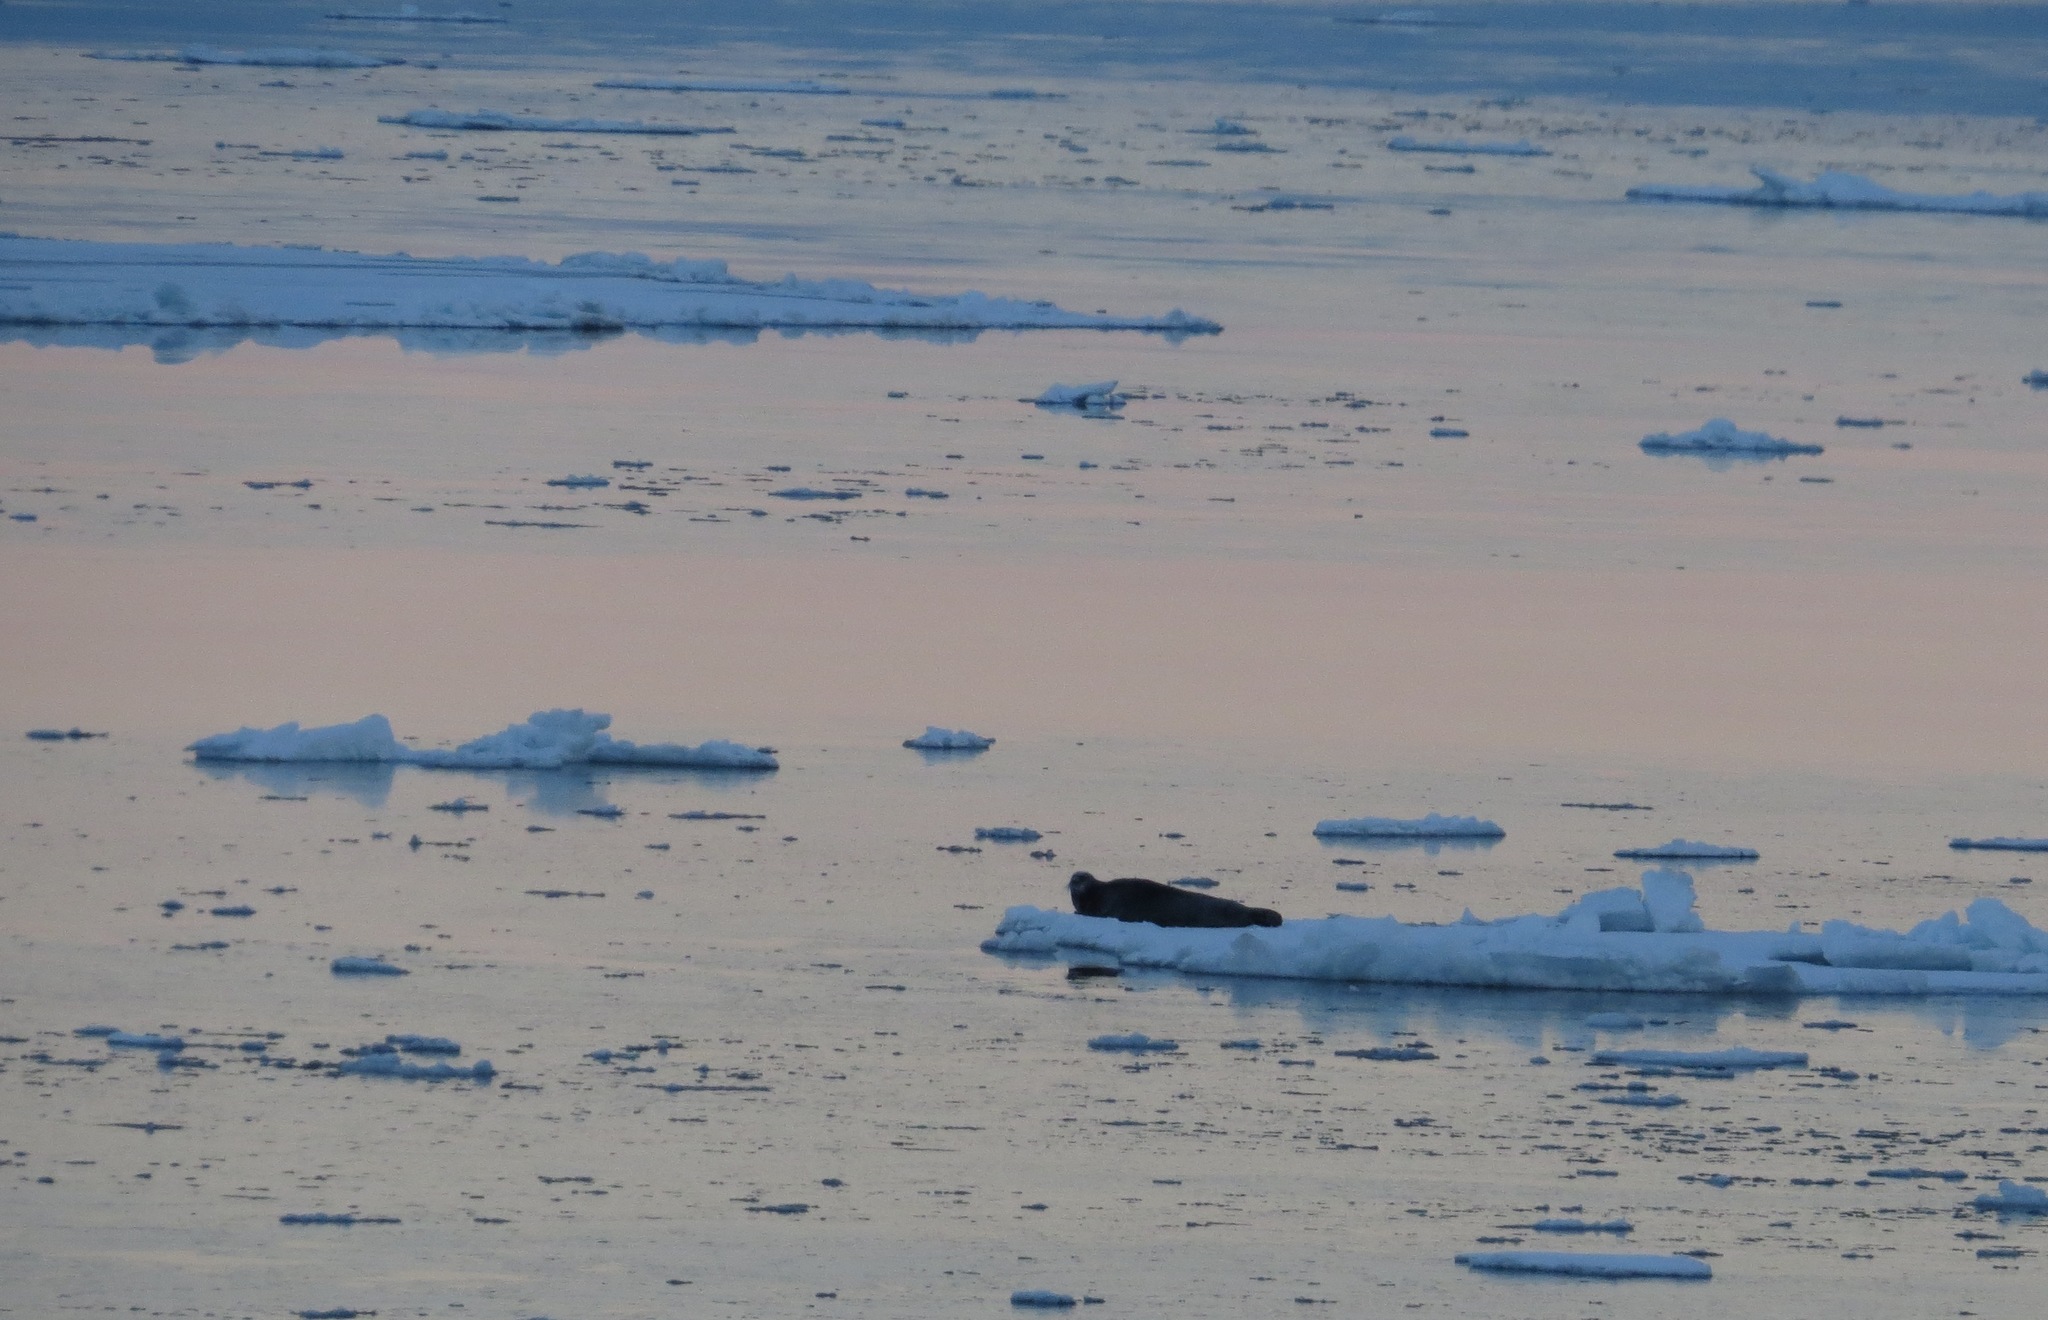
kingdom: Animalia
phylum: Chordata
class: Mammalia
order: Carnivora
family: Phocidae
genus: Erignathus
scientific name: Erignathus barbatus
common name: Bearded seal
